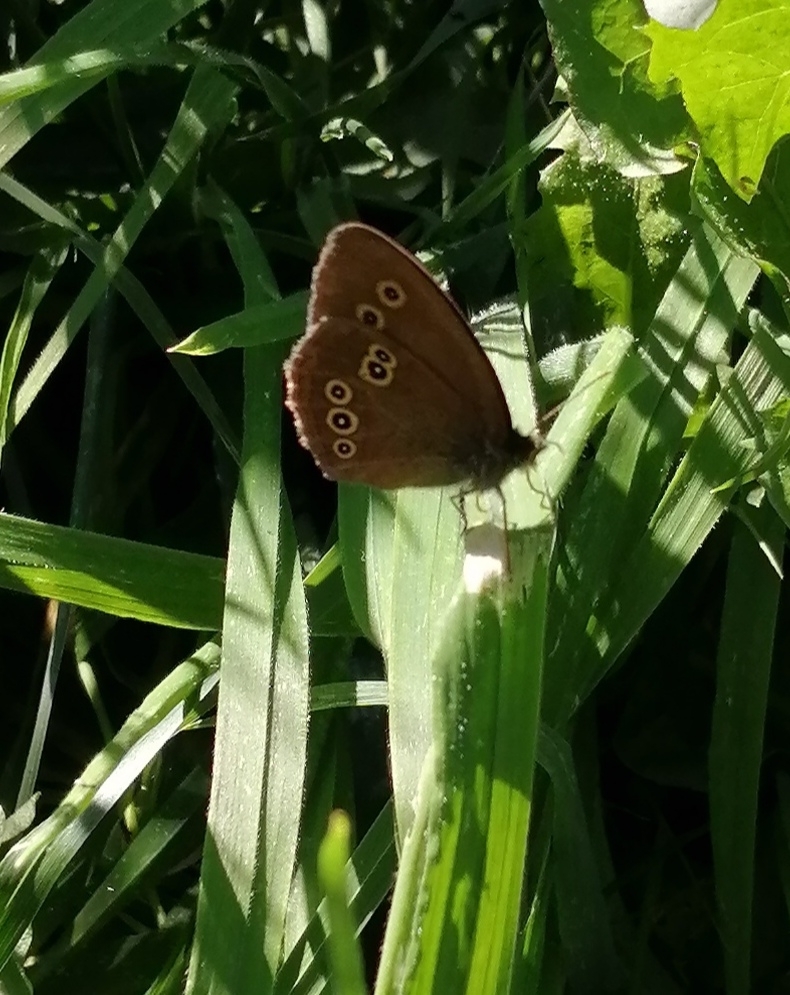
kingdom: Animalia
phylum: Arthropoda
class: Insecta
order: Lepidoptera
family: Nymphalidae
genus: Aphantopus
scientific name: Aphantopus hyperantus
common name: Ringlet
